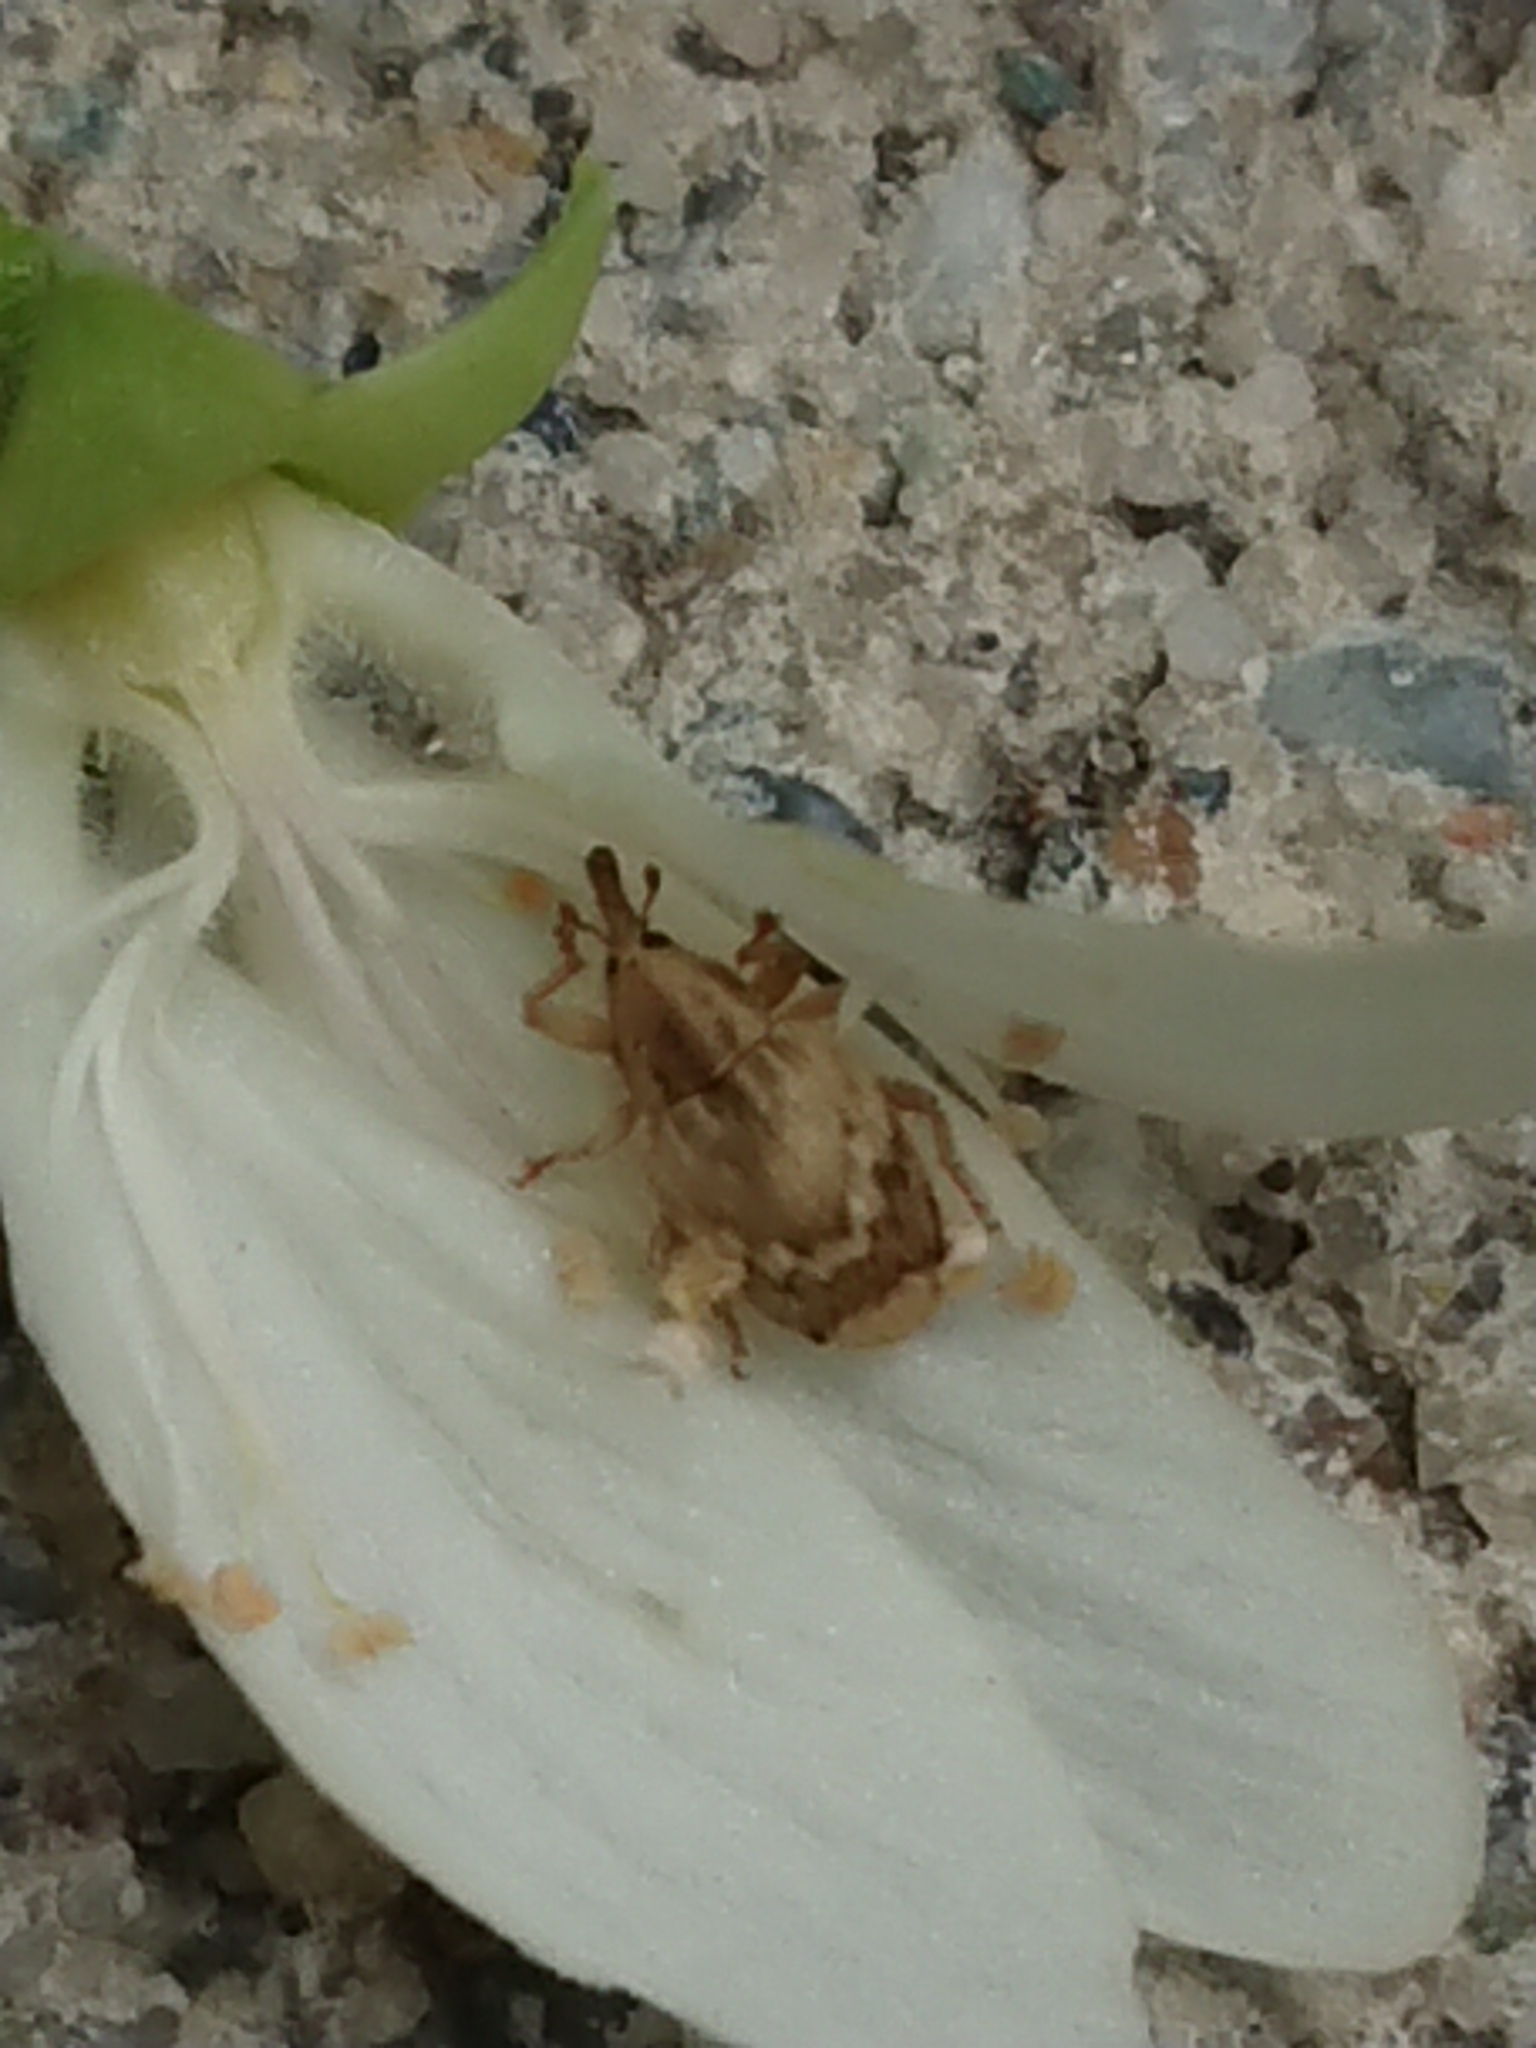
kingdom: Animalia
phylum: Arthropoda
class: Insecta
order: Coleoptera
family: Curculionidae
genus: Aneuma
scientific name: Aneuma compta
